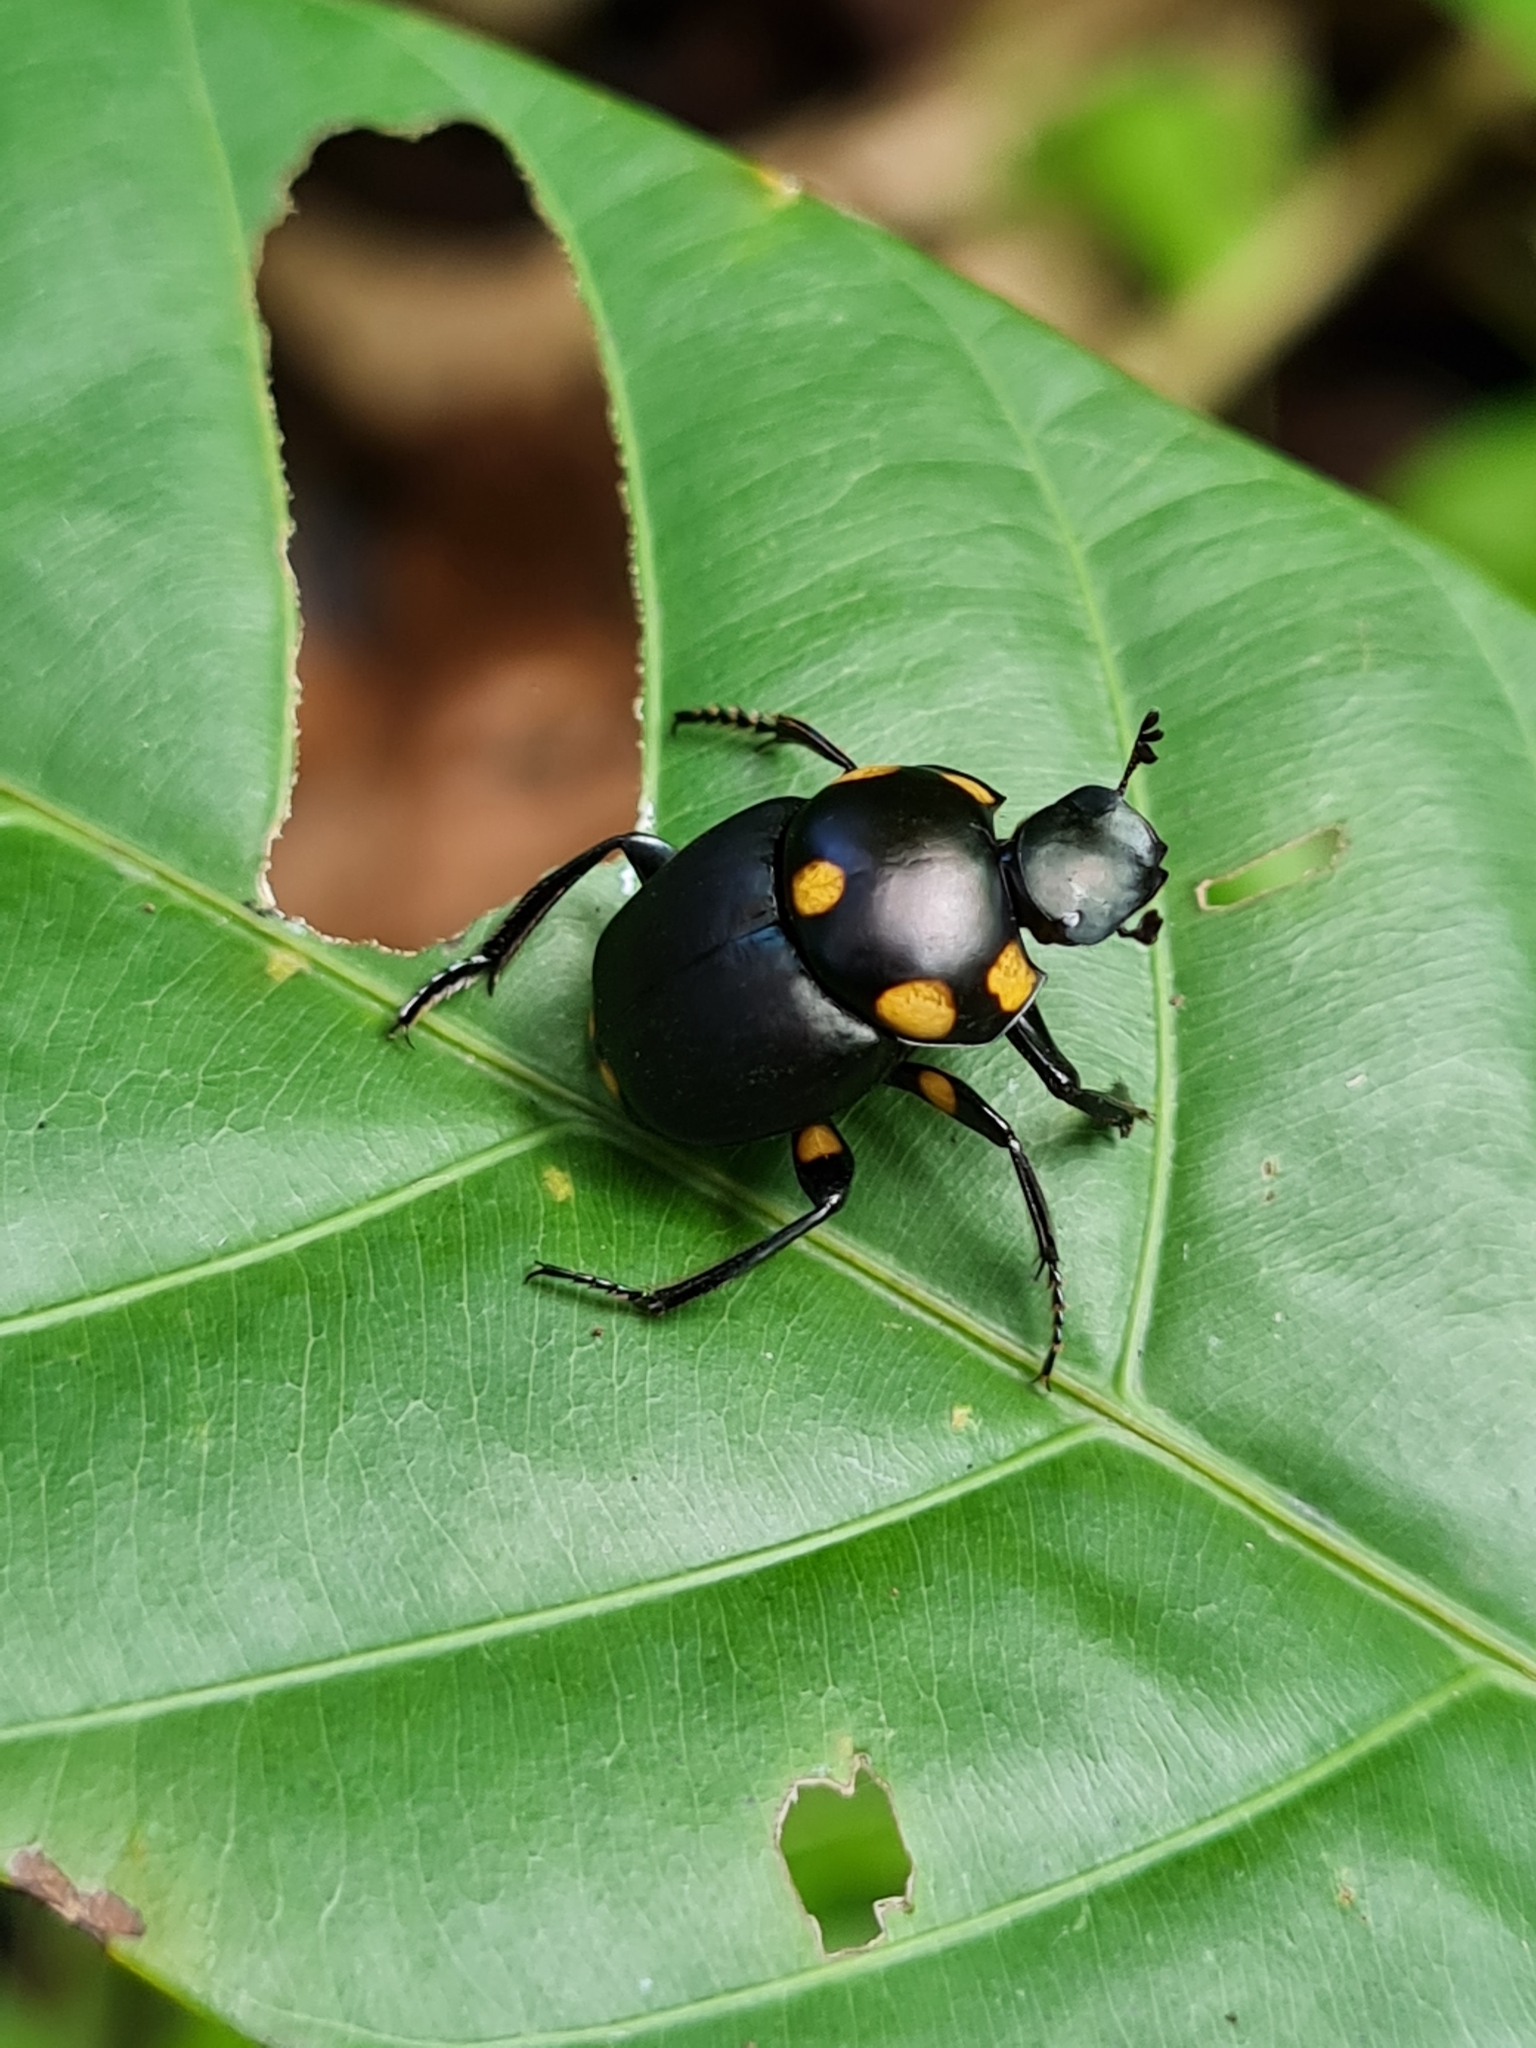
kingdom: Animalia
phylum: Arthropoda
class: Insecta
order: Coleoptera
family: Scarabaeidae
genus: Canthon
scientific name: Canthon septemmaculatus
